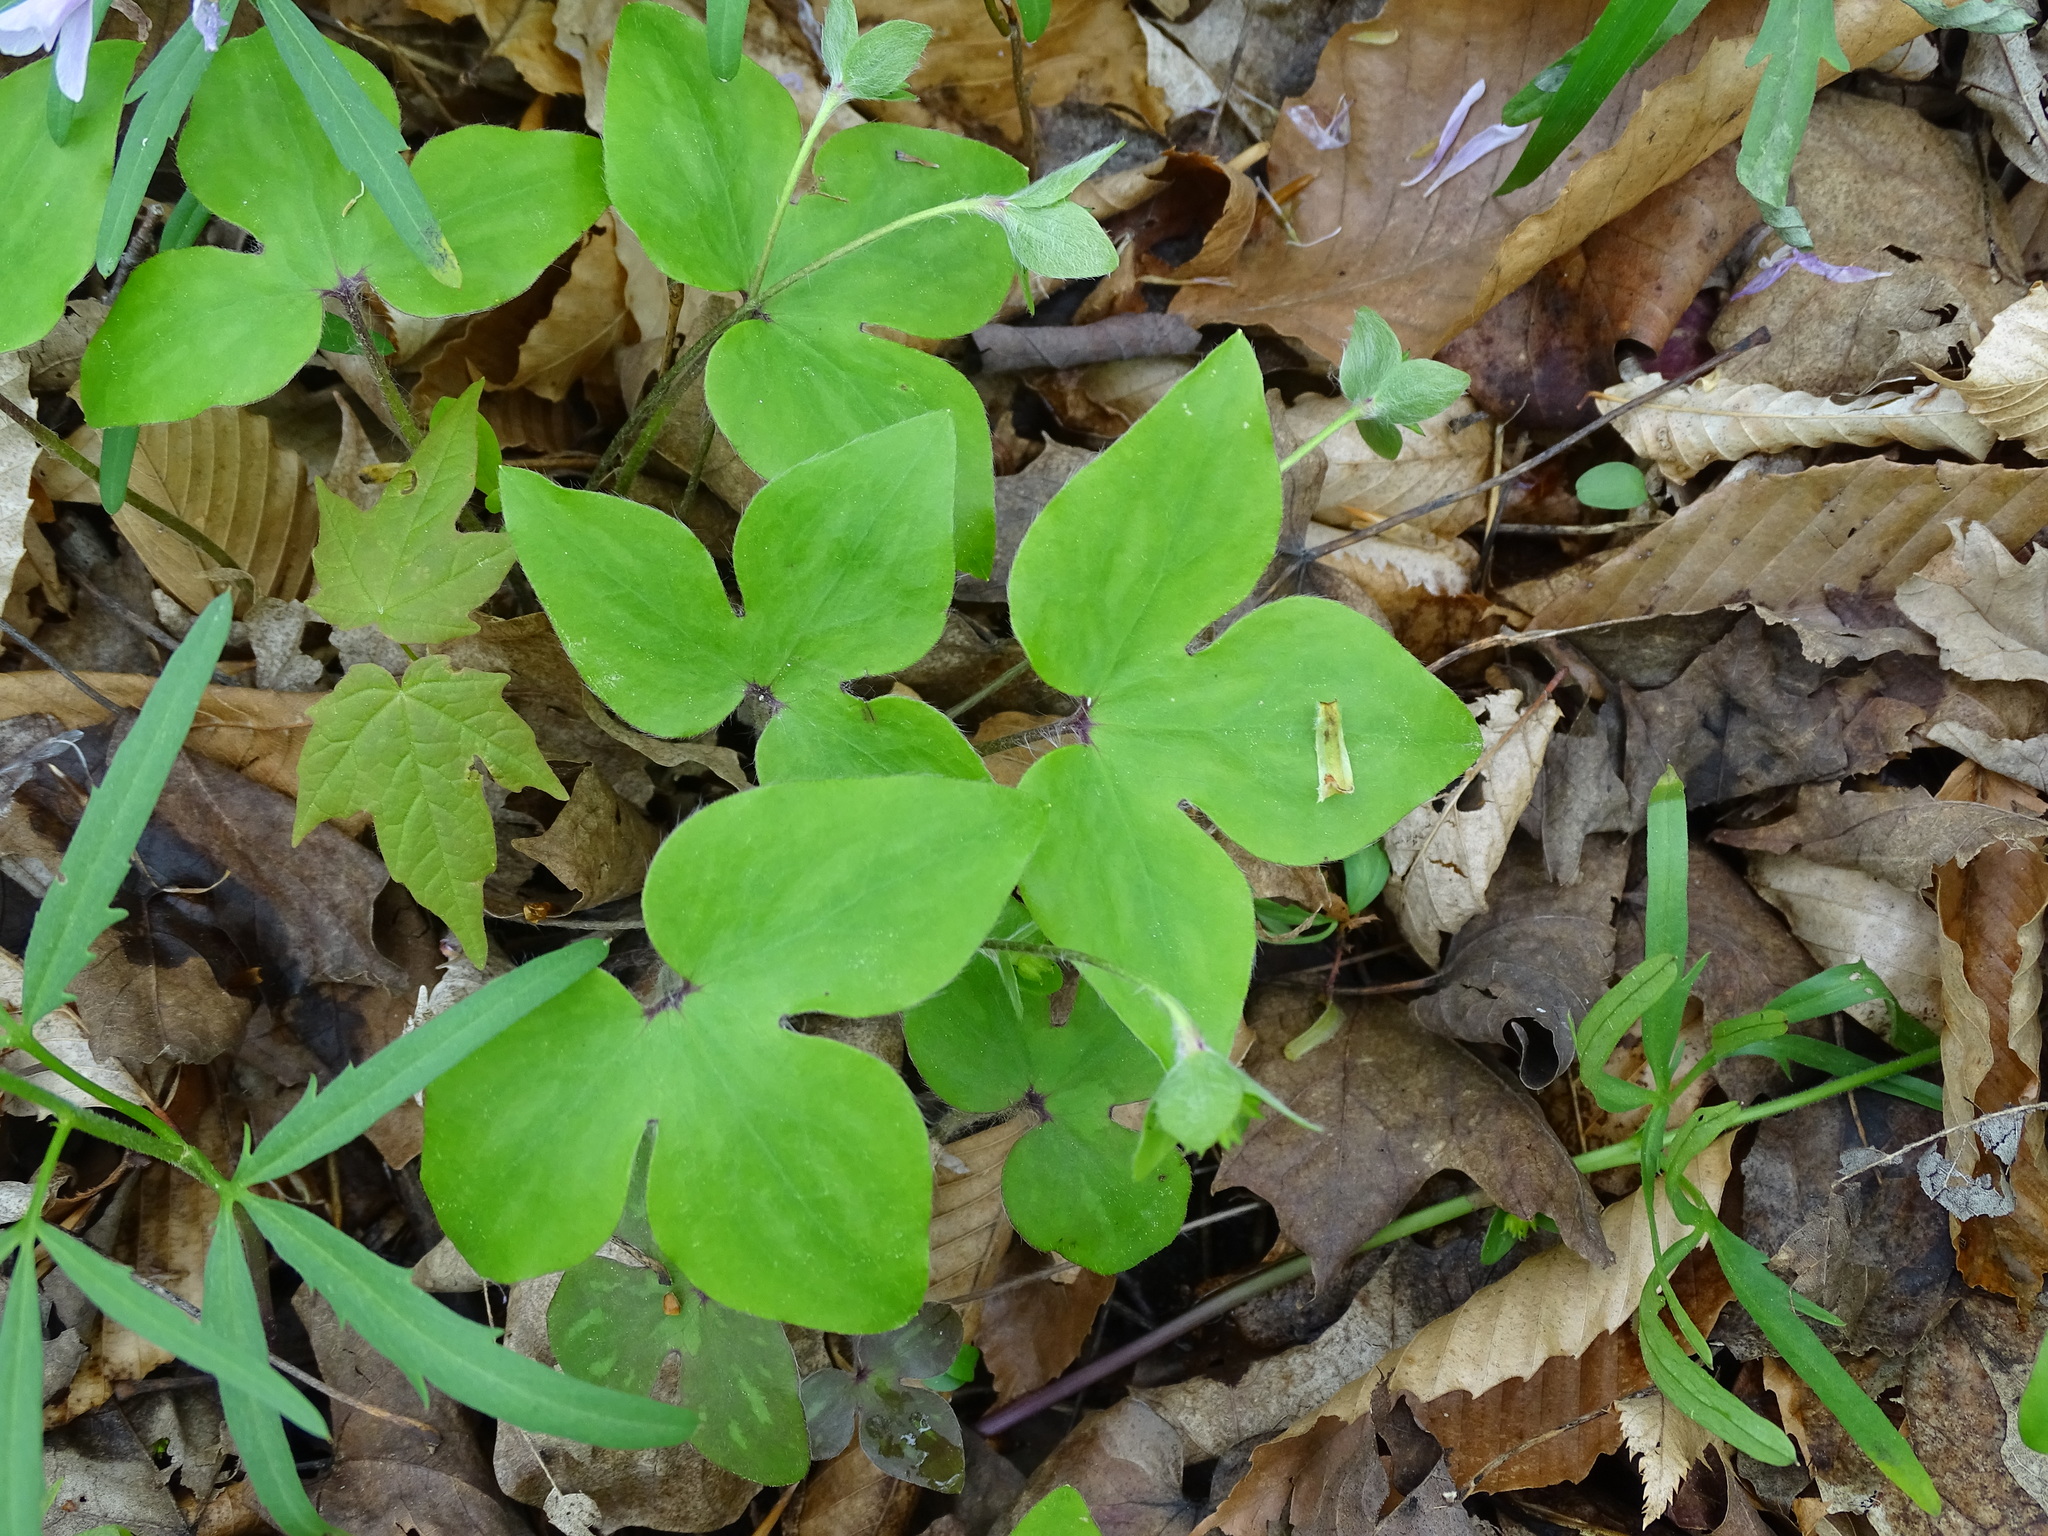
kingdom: Plantae
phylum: Tracheophyta
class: Magnoliopsida
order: Ranunculales
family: Ranunculaceae
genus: Hepatica
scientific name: Hepatica acutiloba
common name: Sharp-lobed hepatica
